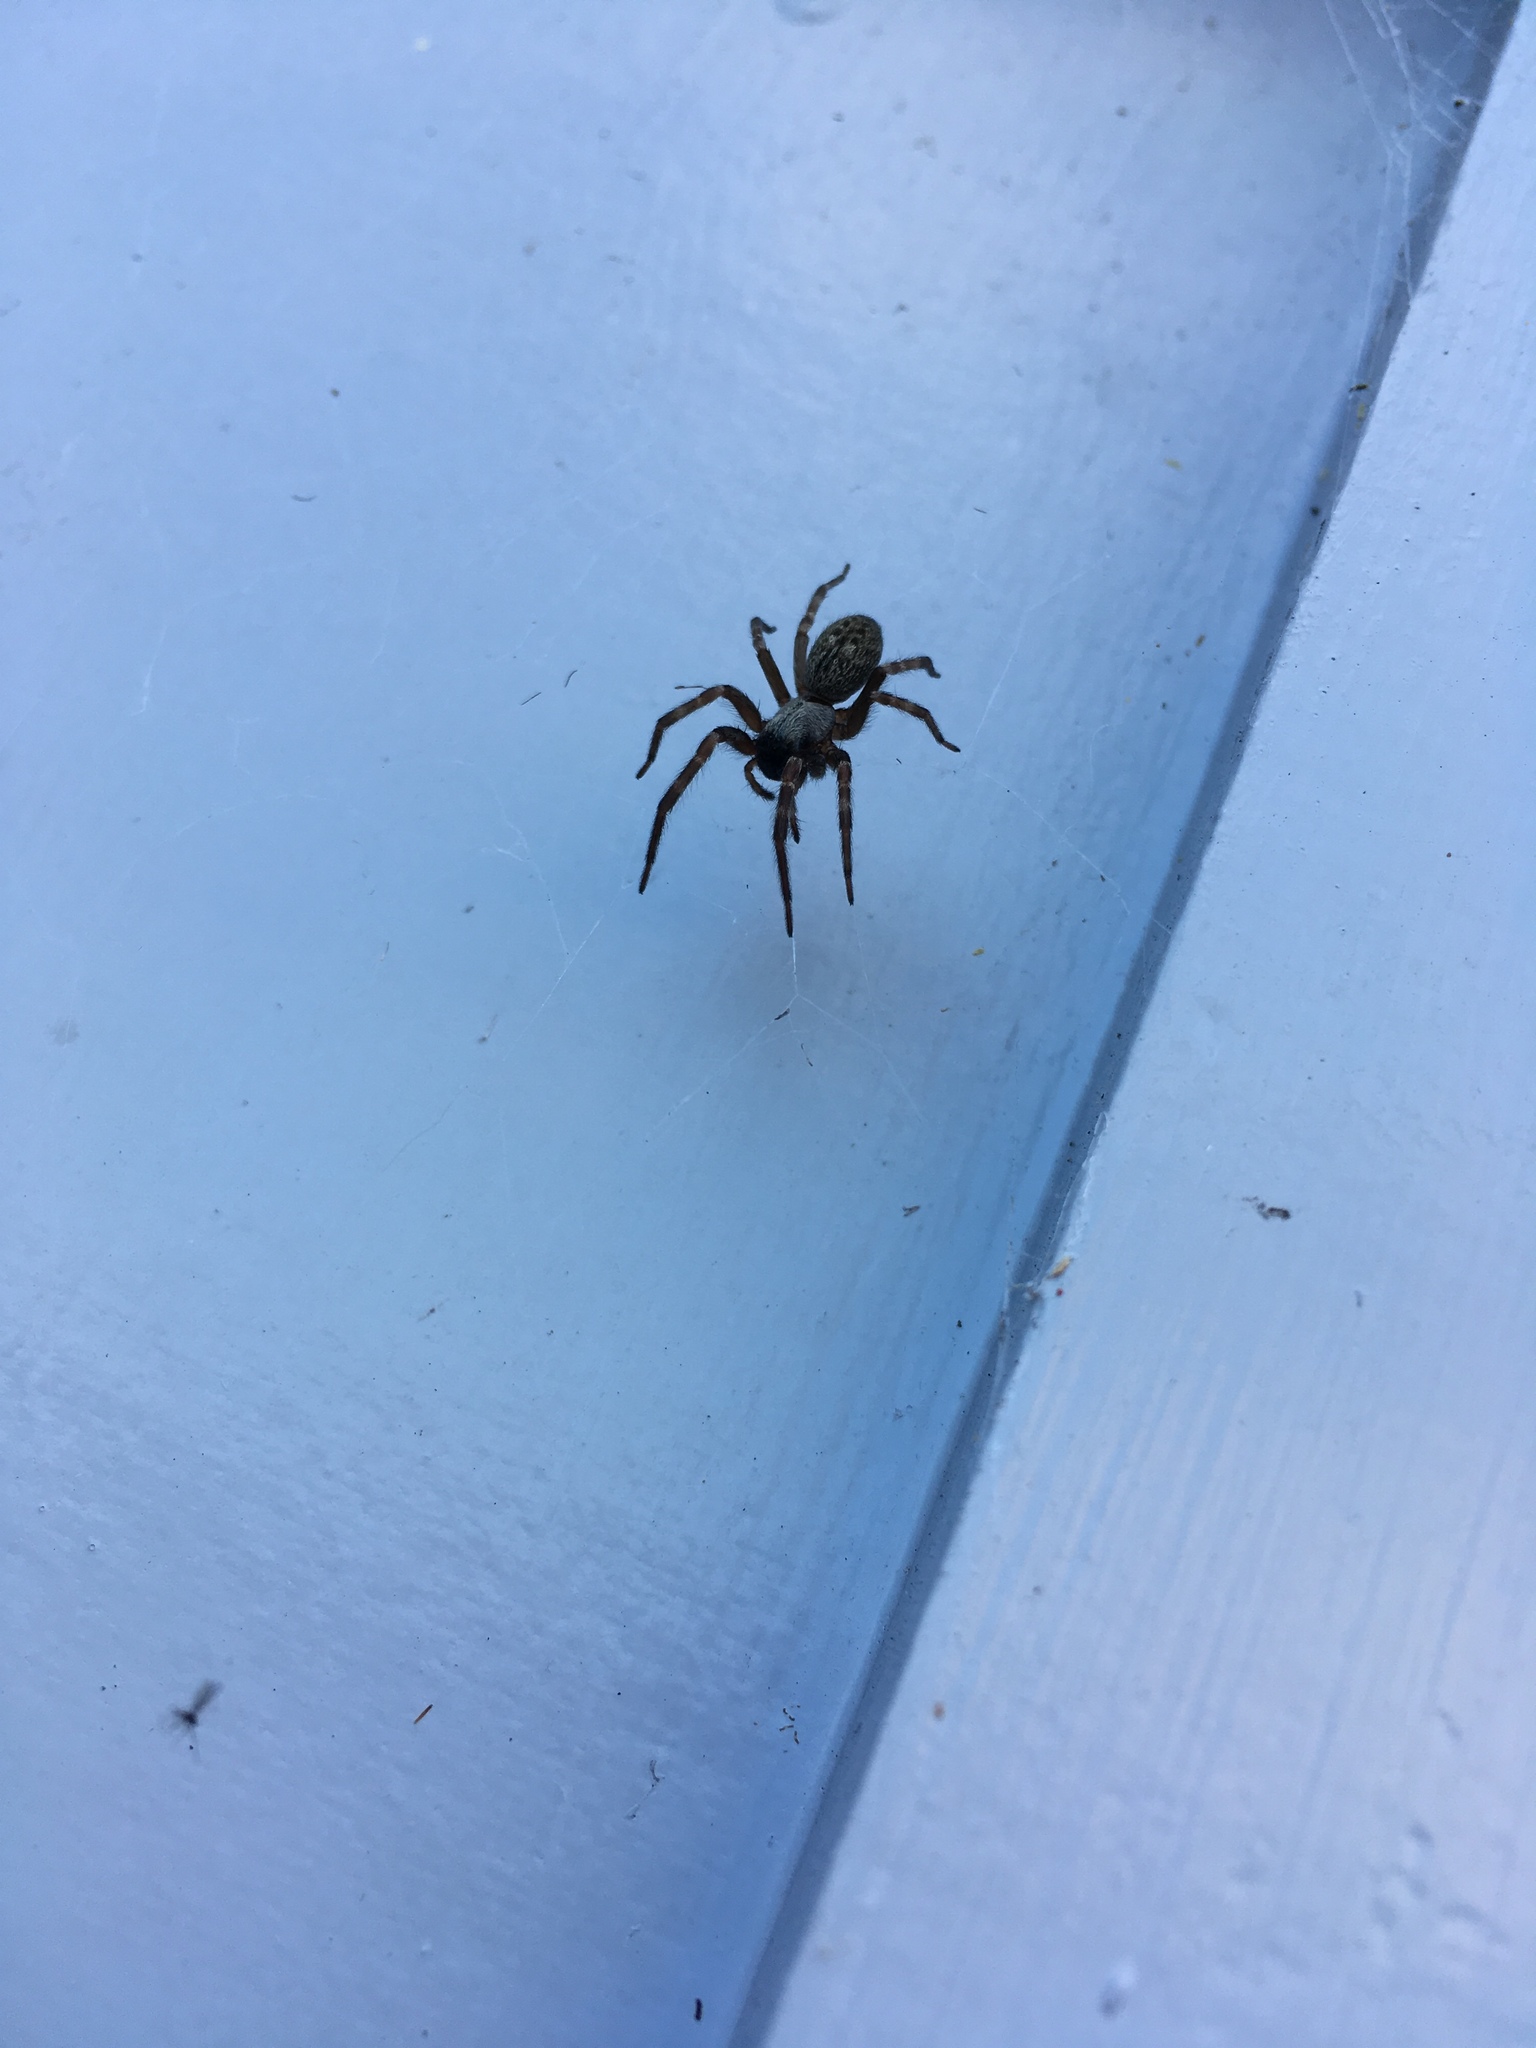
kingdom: Animalia
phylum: Arthropoda
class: Arachnida
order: Araneae
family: Desidae
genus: Badumna
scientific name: Badumna longinqua
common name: Gray house spider
